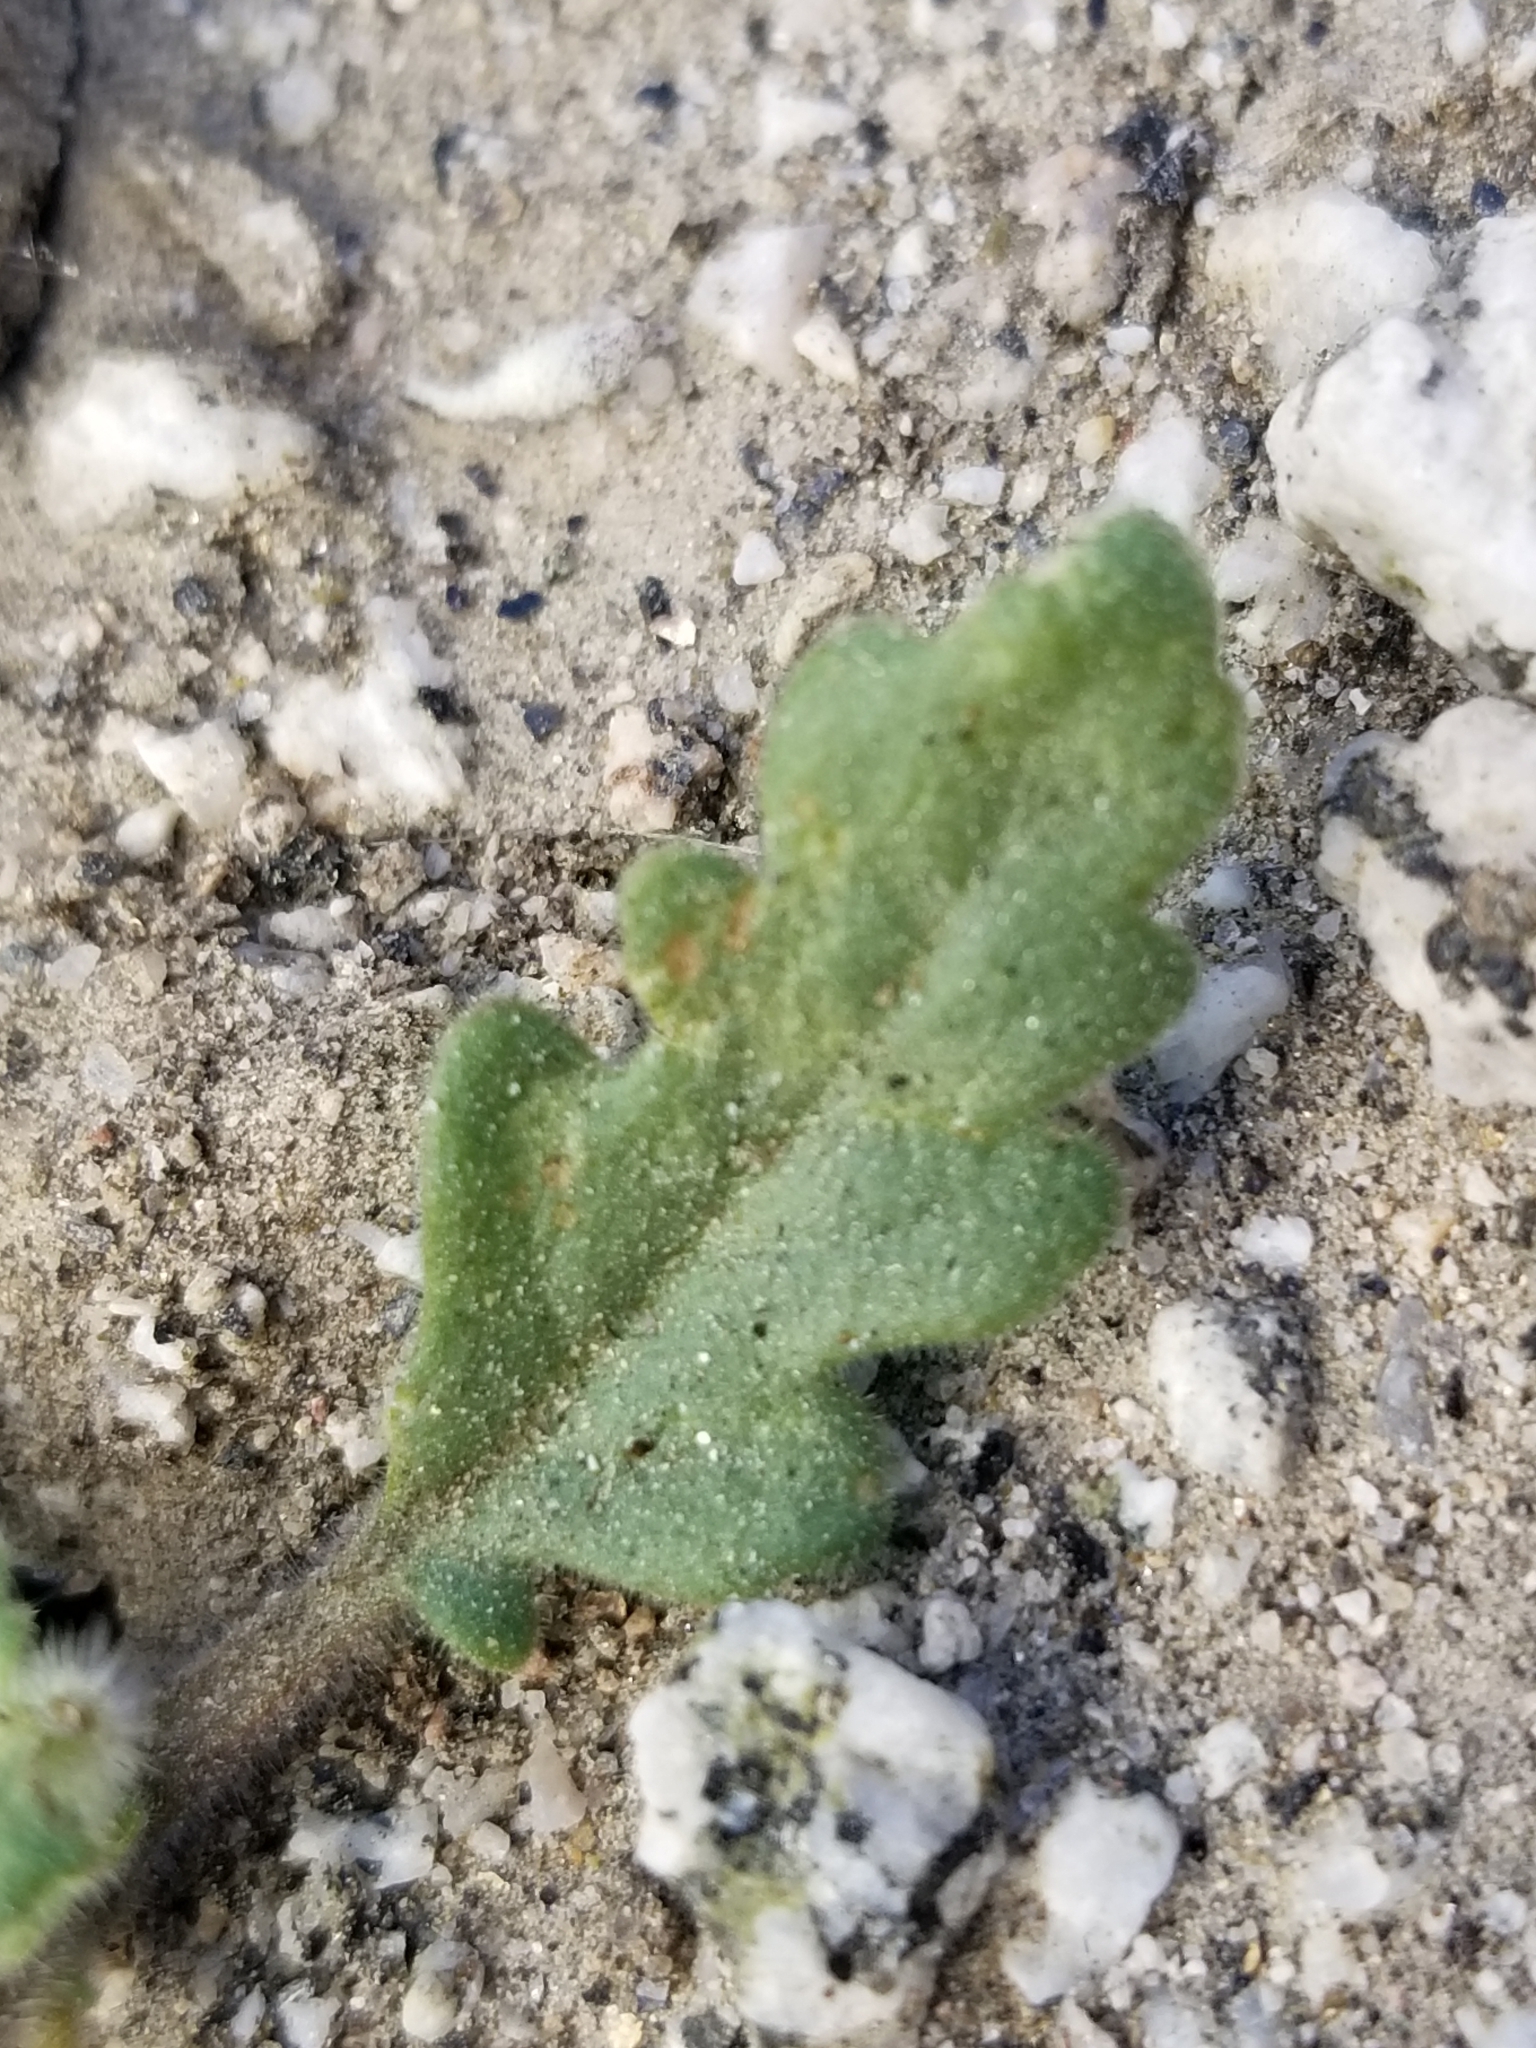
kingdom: Plantae
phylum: Tracheophyta
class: Magnoliopsida
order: Boraginales
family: Hydrophyllaceae
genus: Phacelia
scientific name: Phacelia crenulata
